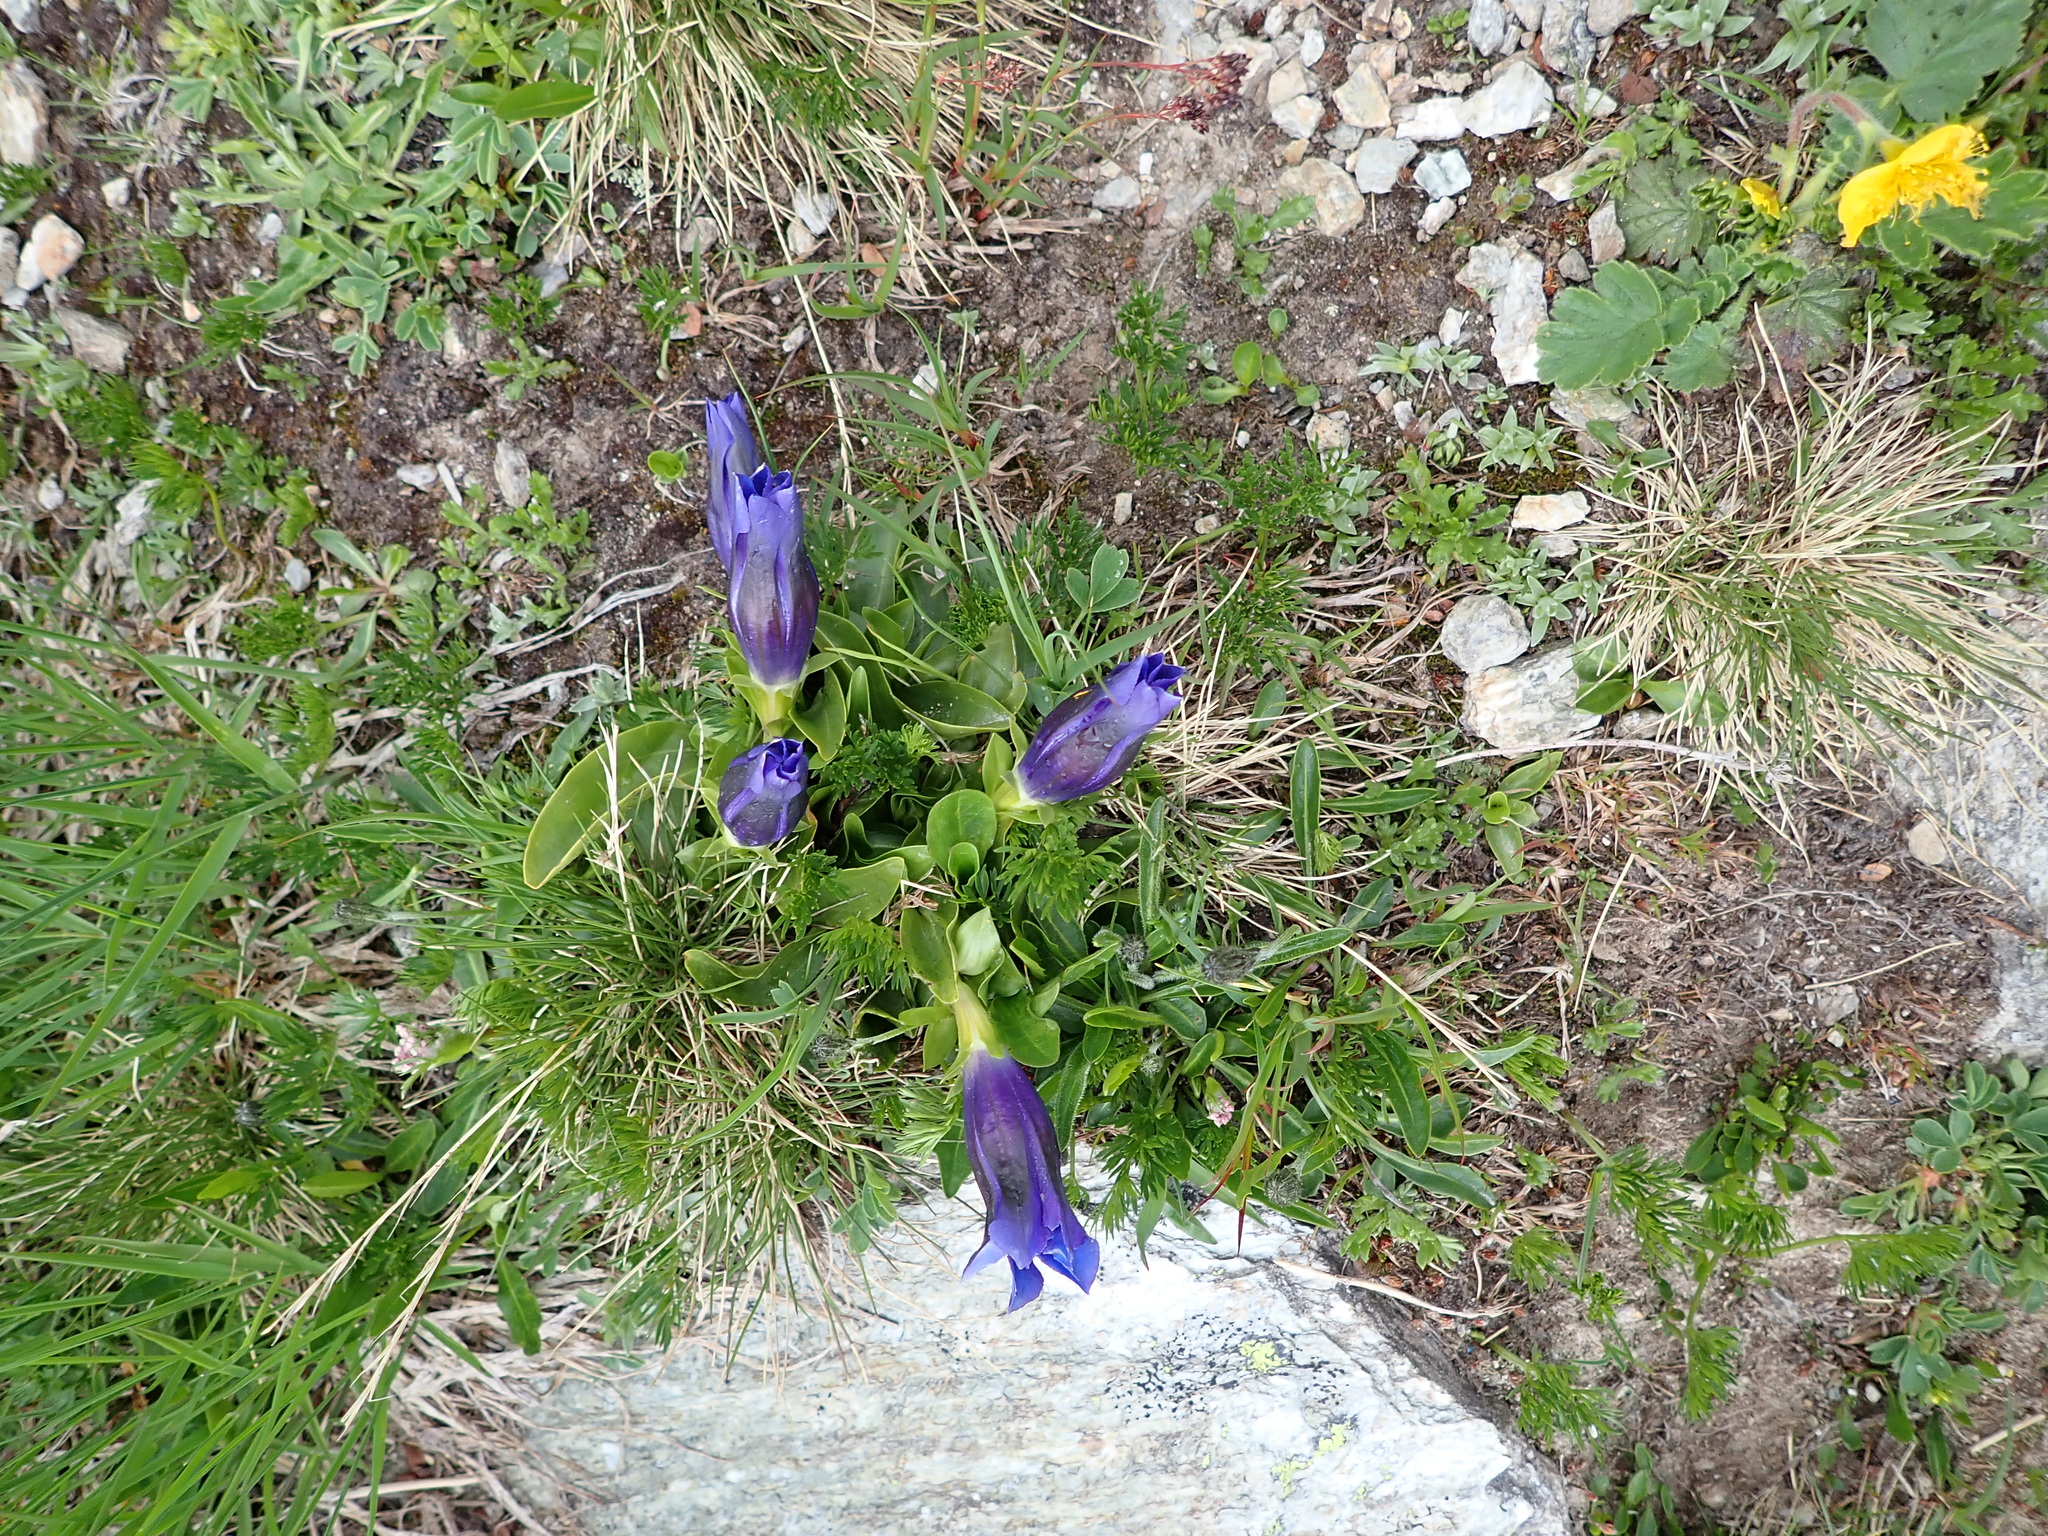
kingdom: Plantae
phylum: Tracheophyta
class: Magnoliopsida
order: Gentianales
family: Gentianaceae
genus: Gentiana
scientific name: Gentiana acaulis
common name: Trumpet gentian
